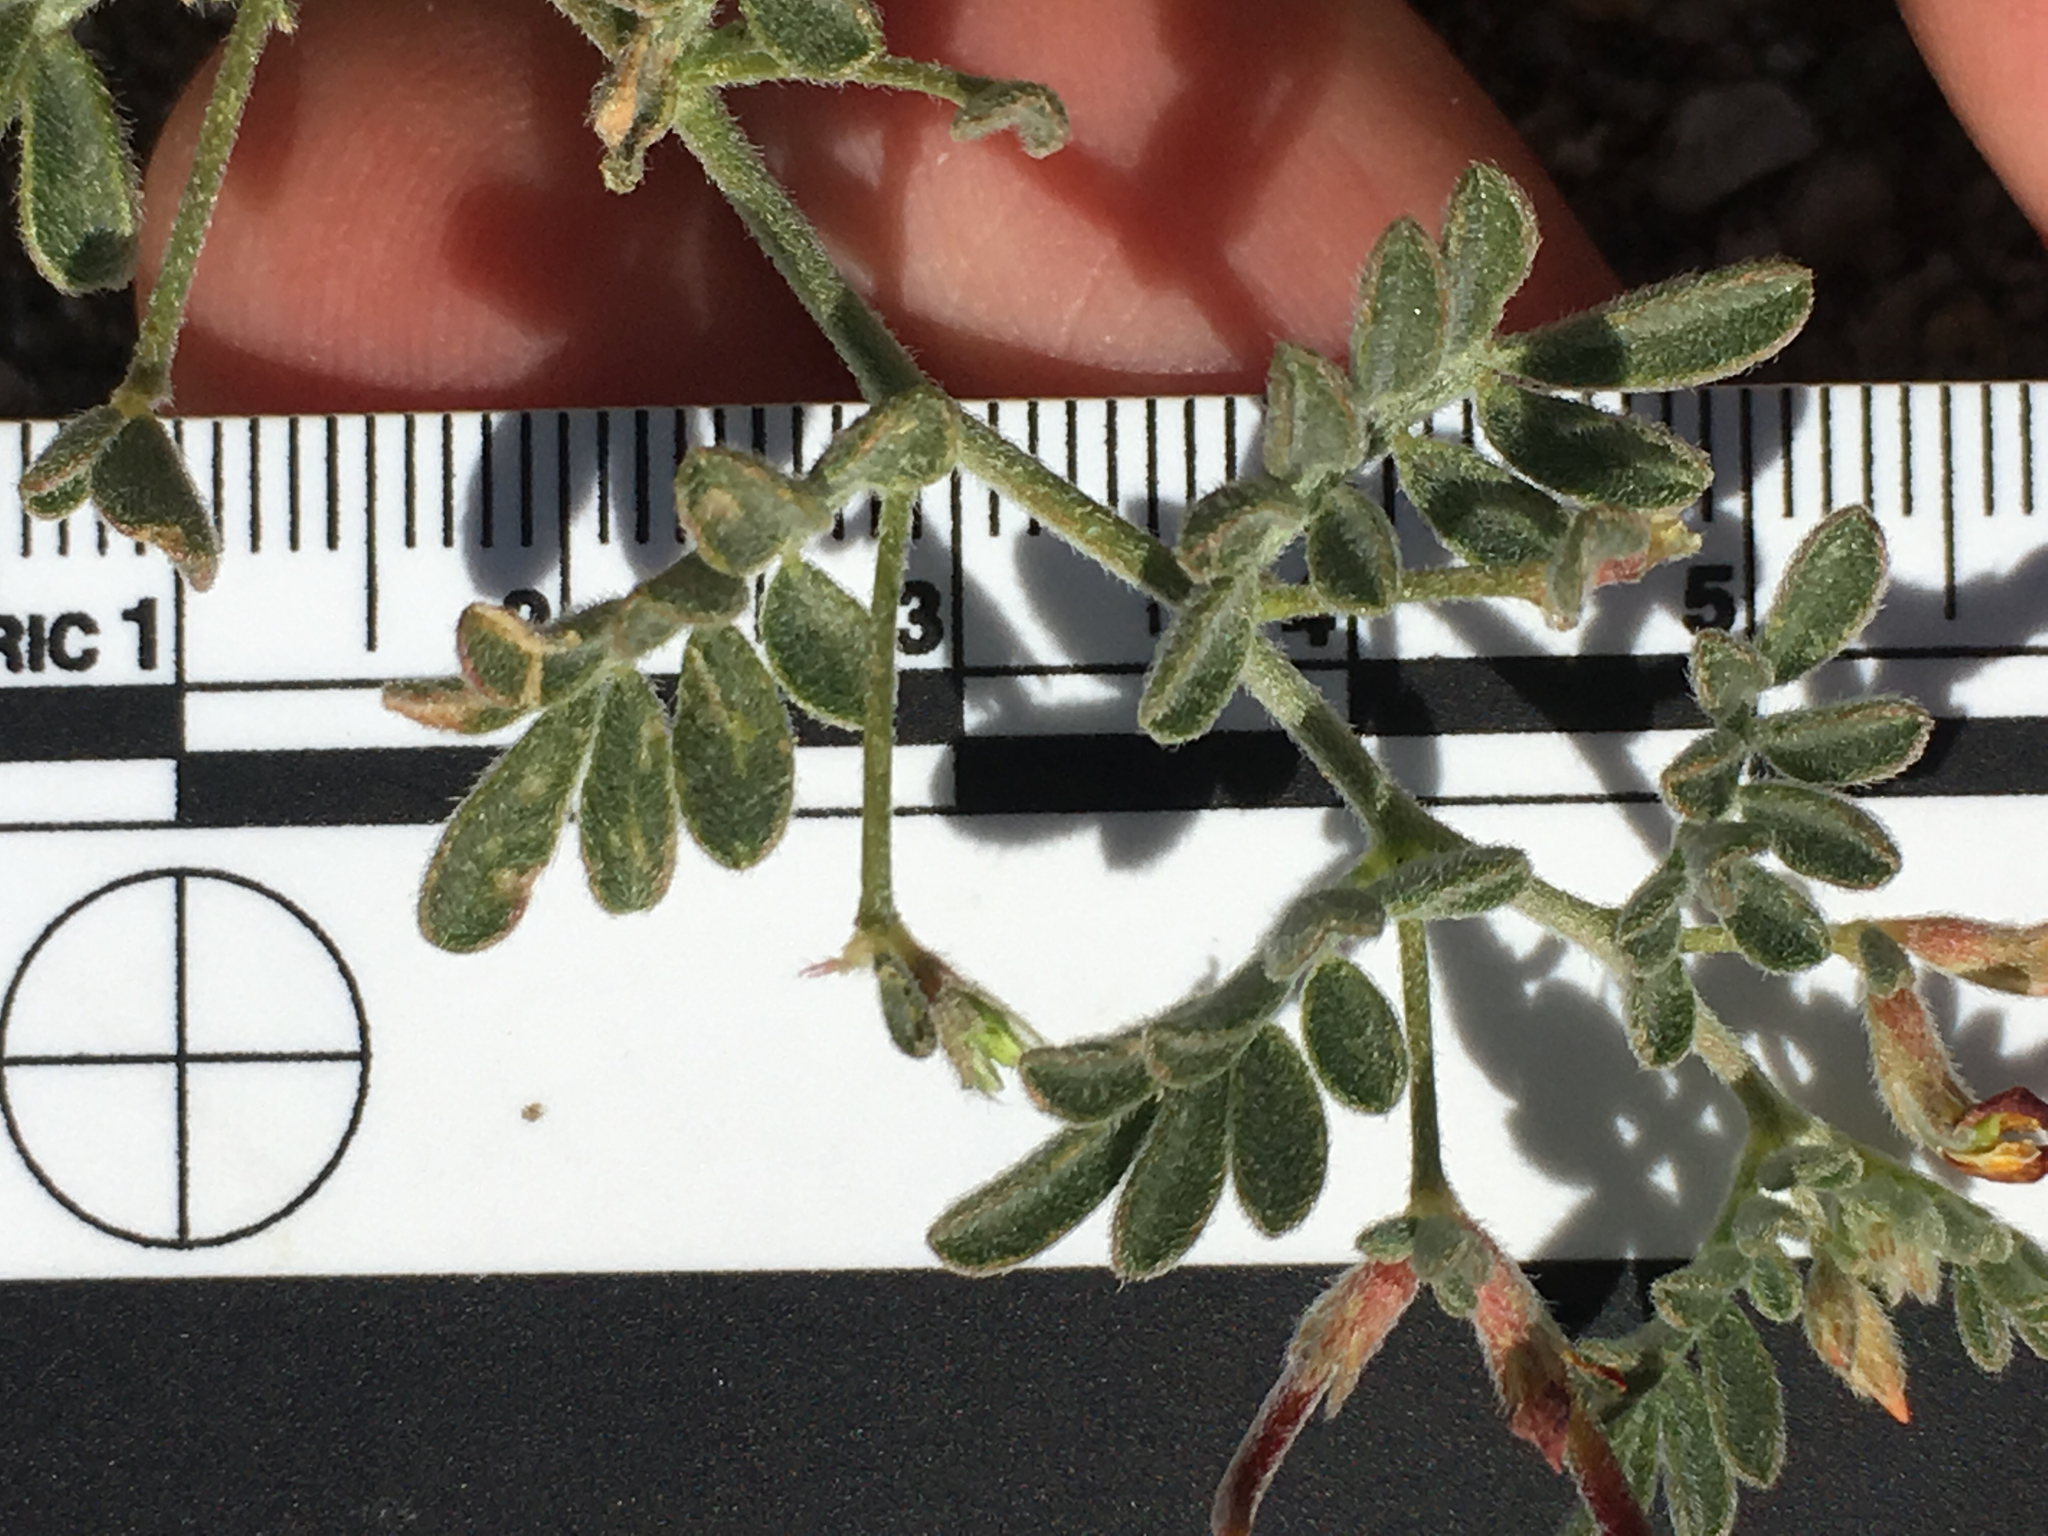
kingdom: Plantae
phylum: Tracheophyta
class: Magnoliopsida
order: Fabales
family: Fabaceae
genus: Acmispon
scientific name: Acmispon strigosus
